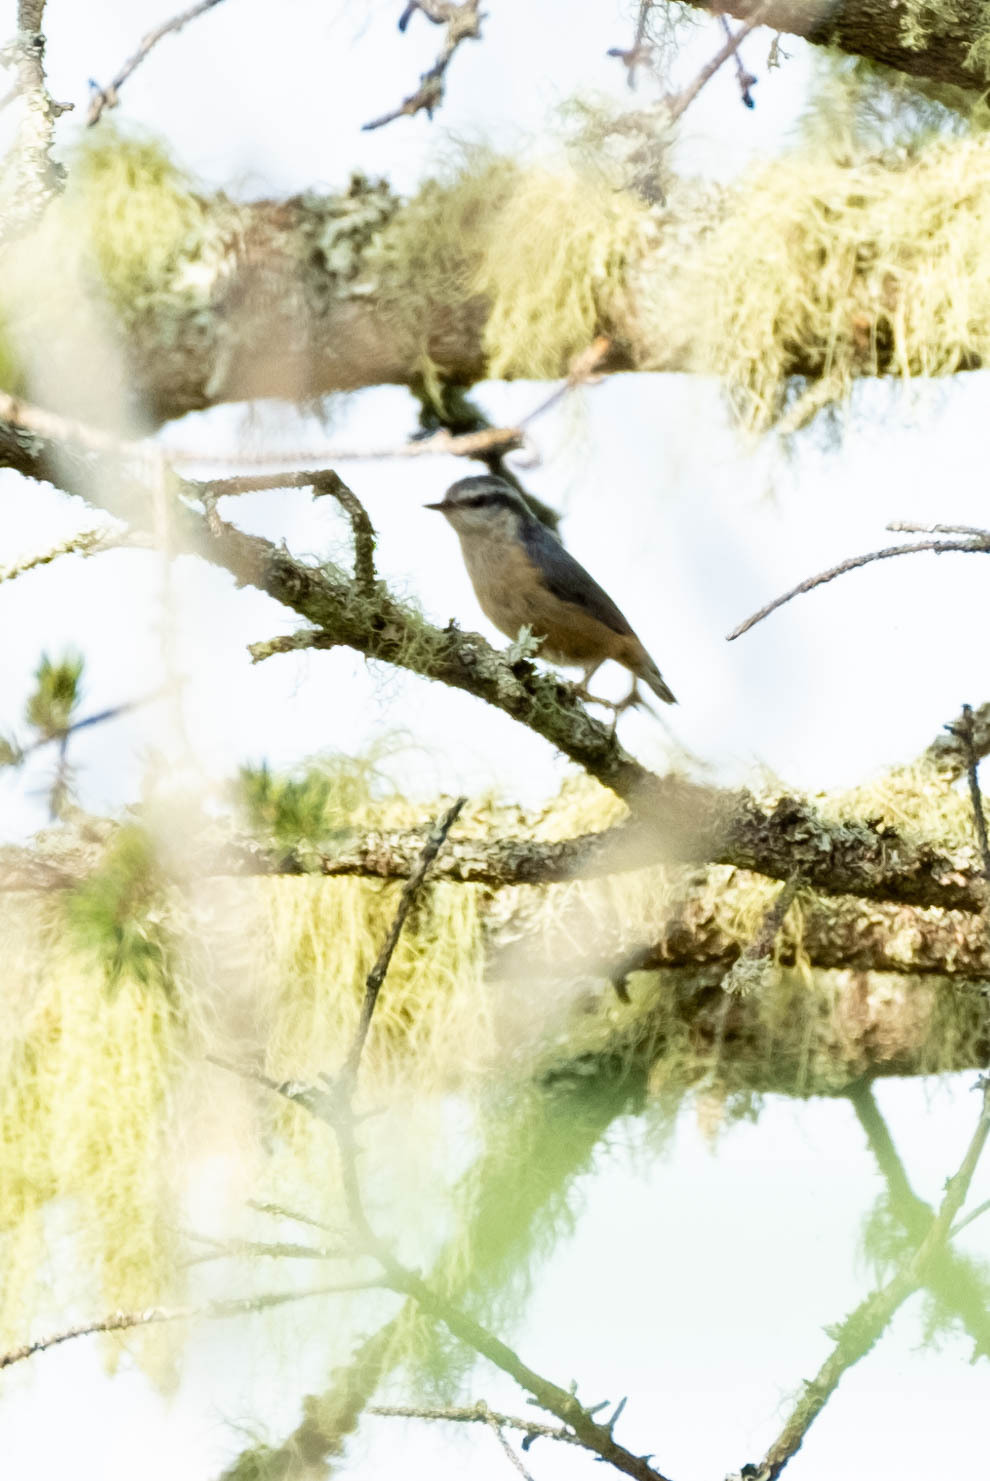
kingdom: Animalia
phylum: Chordata
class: Aves
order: Passeriformes
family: Sittidae
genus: Sitta
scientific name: Sitta canadensis
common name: Red-breasted nuthatch
